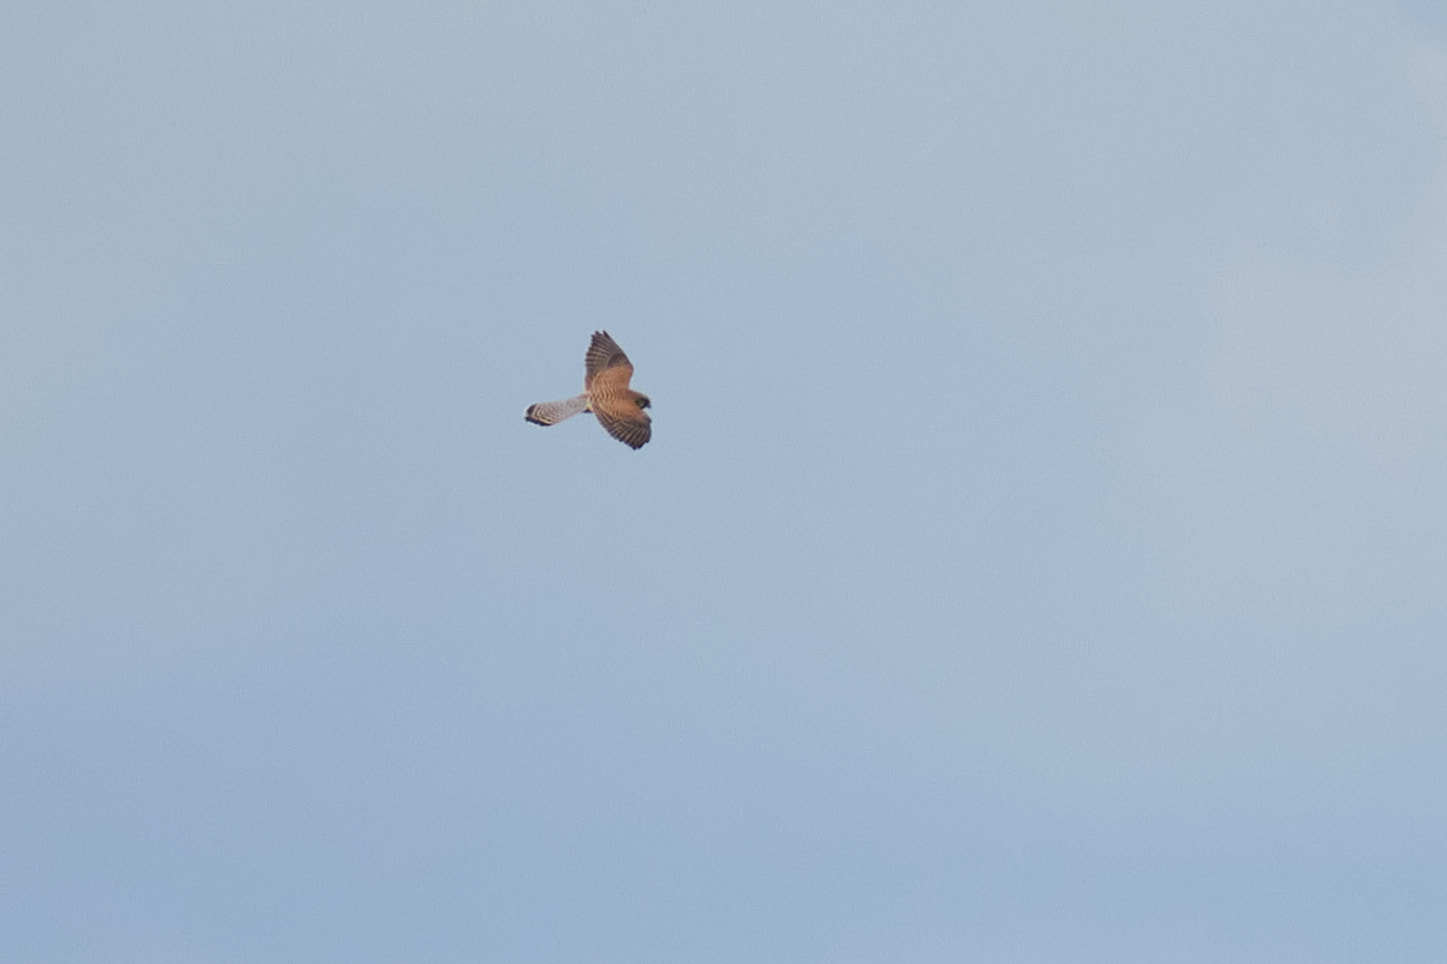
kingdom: Animalia
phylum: Chordata
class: Aves
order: Falconiformes
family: Falconidae
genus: Falco
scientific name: Falco tinnunculus
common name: Common kestrel
